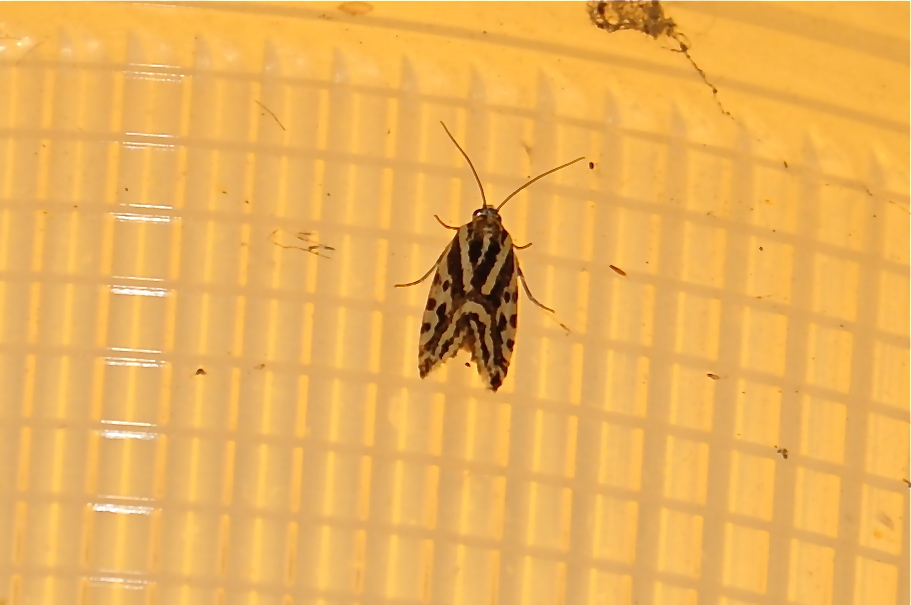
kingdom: Animalia
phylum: Arthropoda
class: Insecta
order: Lepidoptera
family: Noctuidae
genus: Acontia
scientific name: Acontia trabealis
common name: Spotted sulphur
